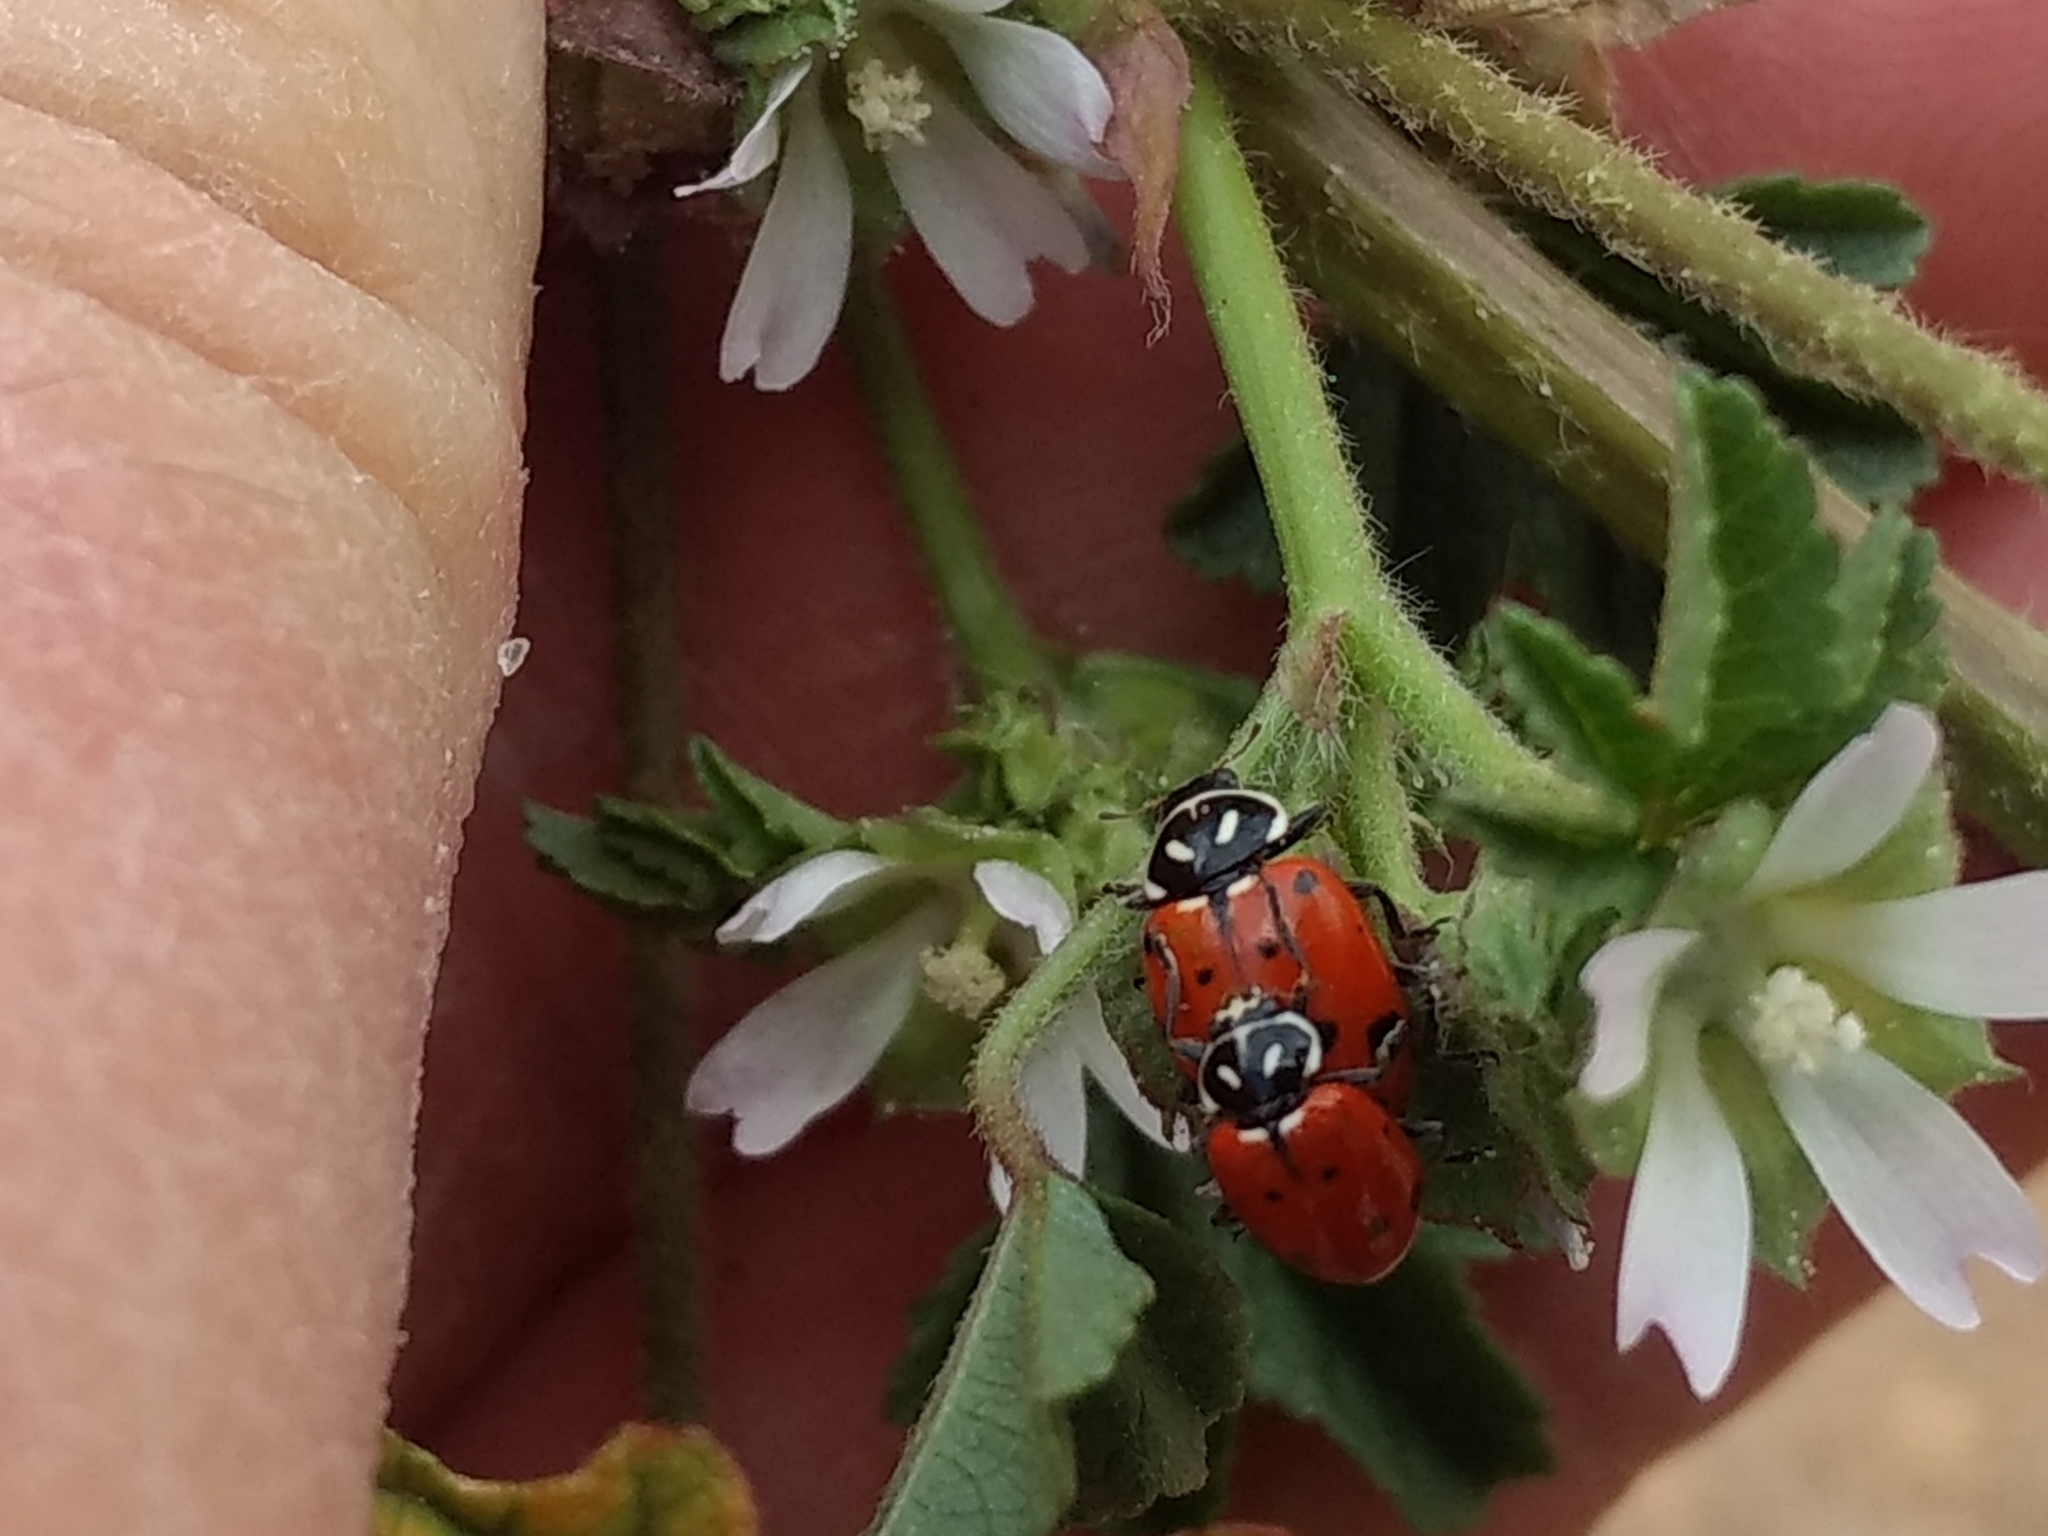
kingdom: Animalia
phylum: Arthropoda
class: Insecta
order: Coleoptera
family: Coccinellidae
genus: Hippodamia
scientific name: Hippodamia convergens
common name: Convergent lady beetle
